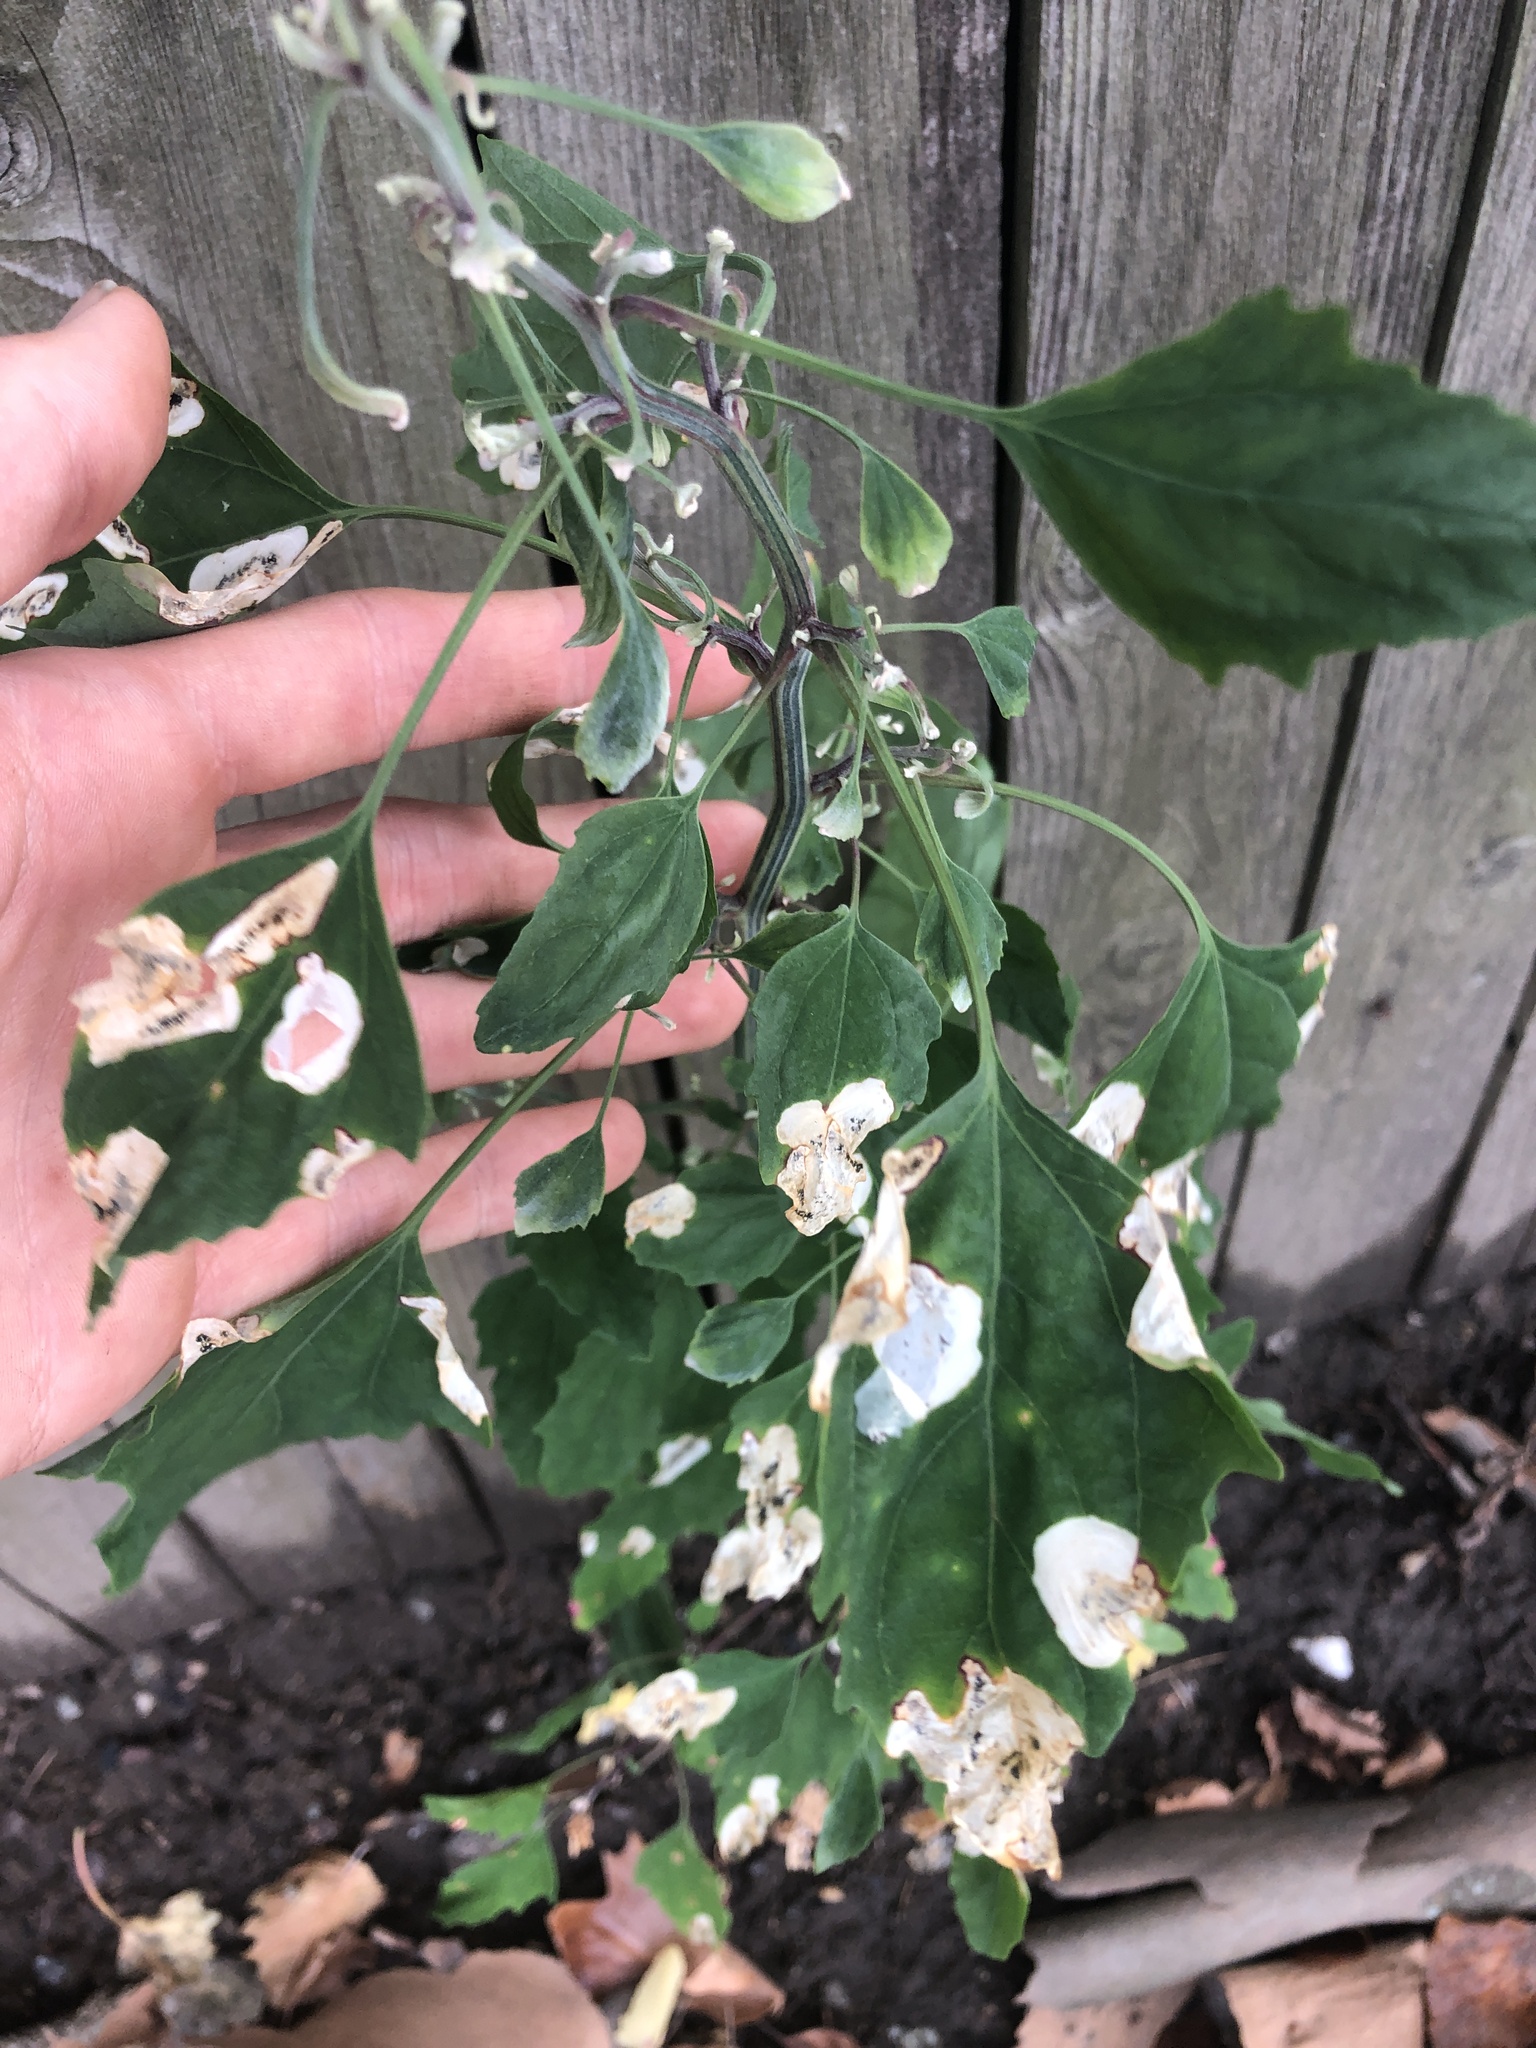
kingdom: Animalia
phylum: Arthropoda
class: Insecta
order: Lepidoptera
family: Gelechiidae
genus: Chrysoesthia
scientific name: Chrysoesthia sexguttella
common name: Moth
